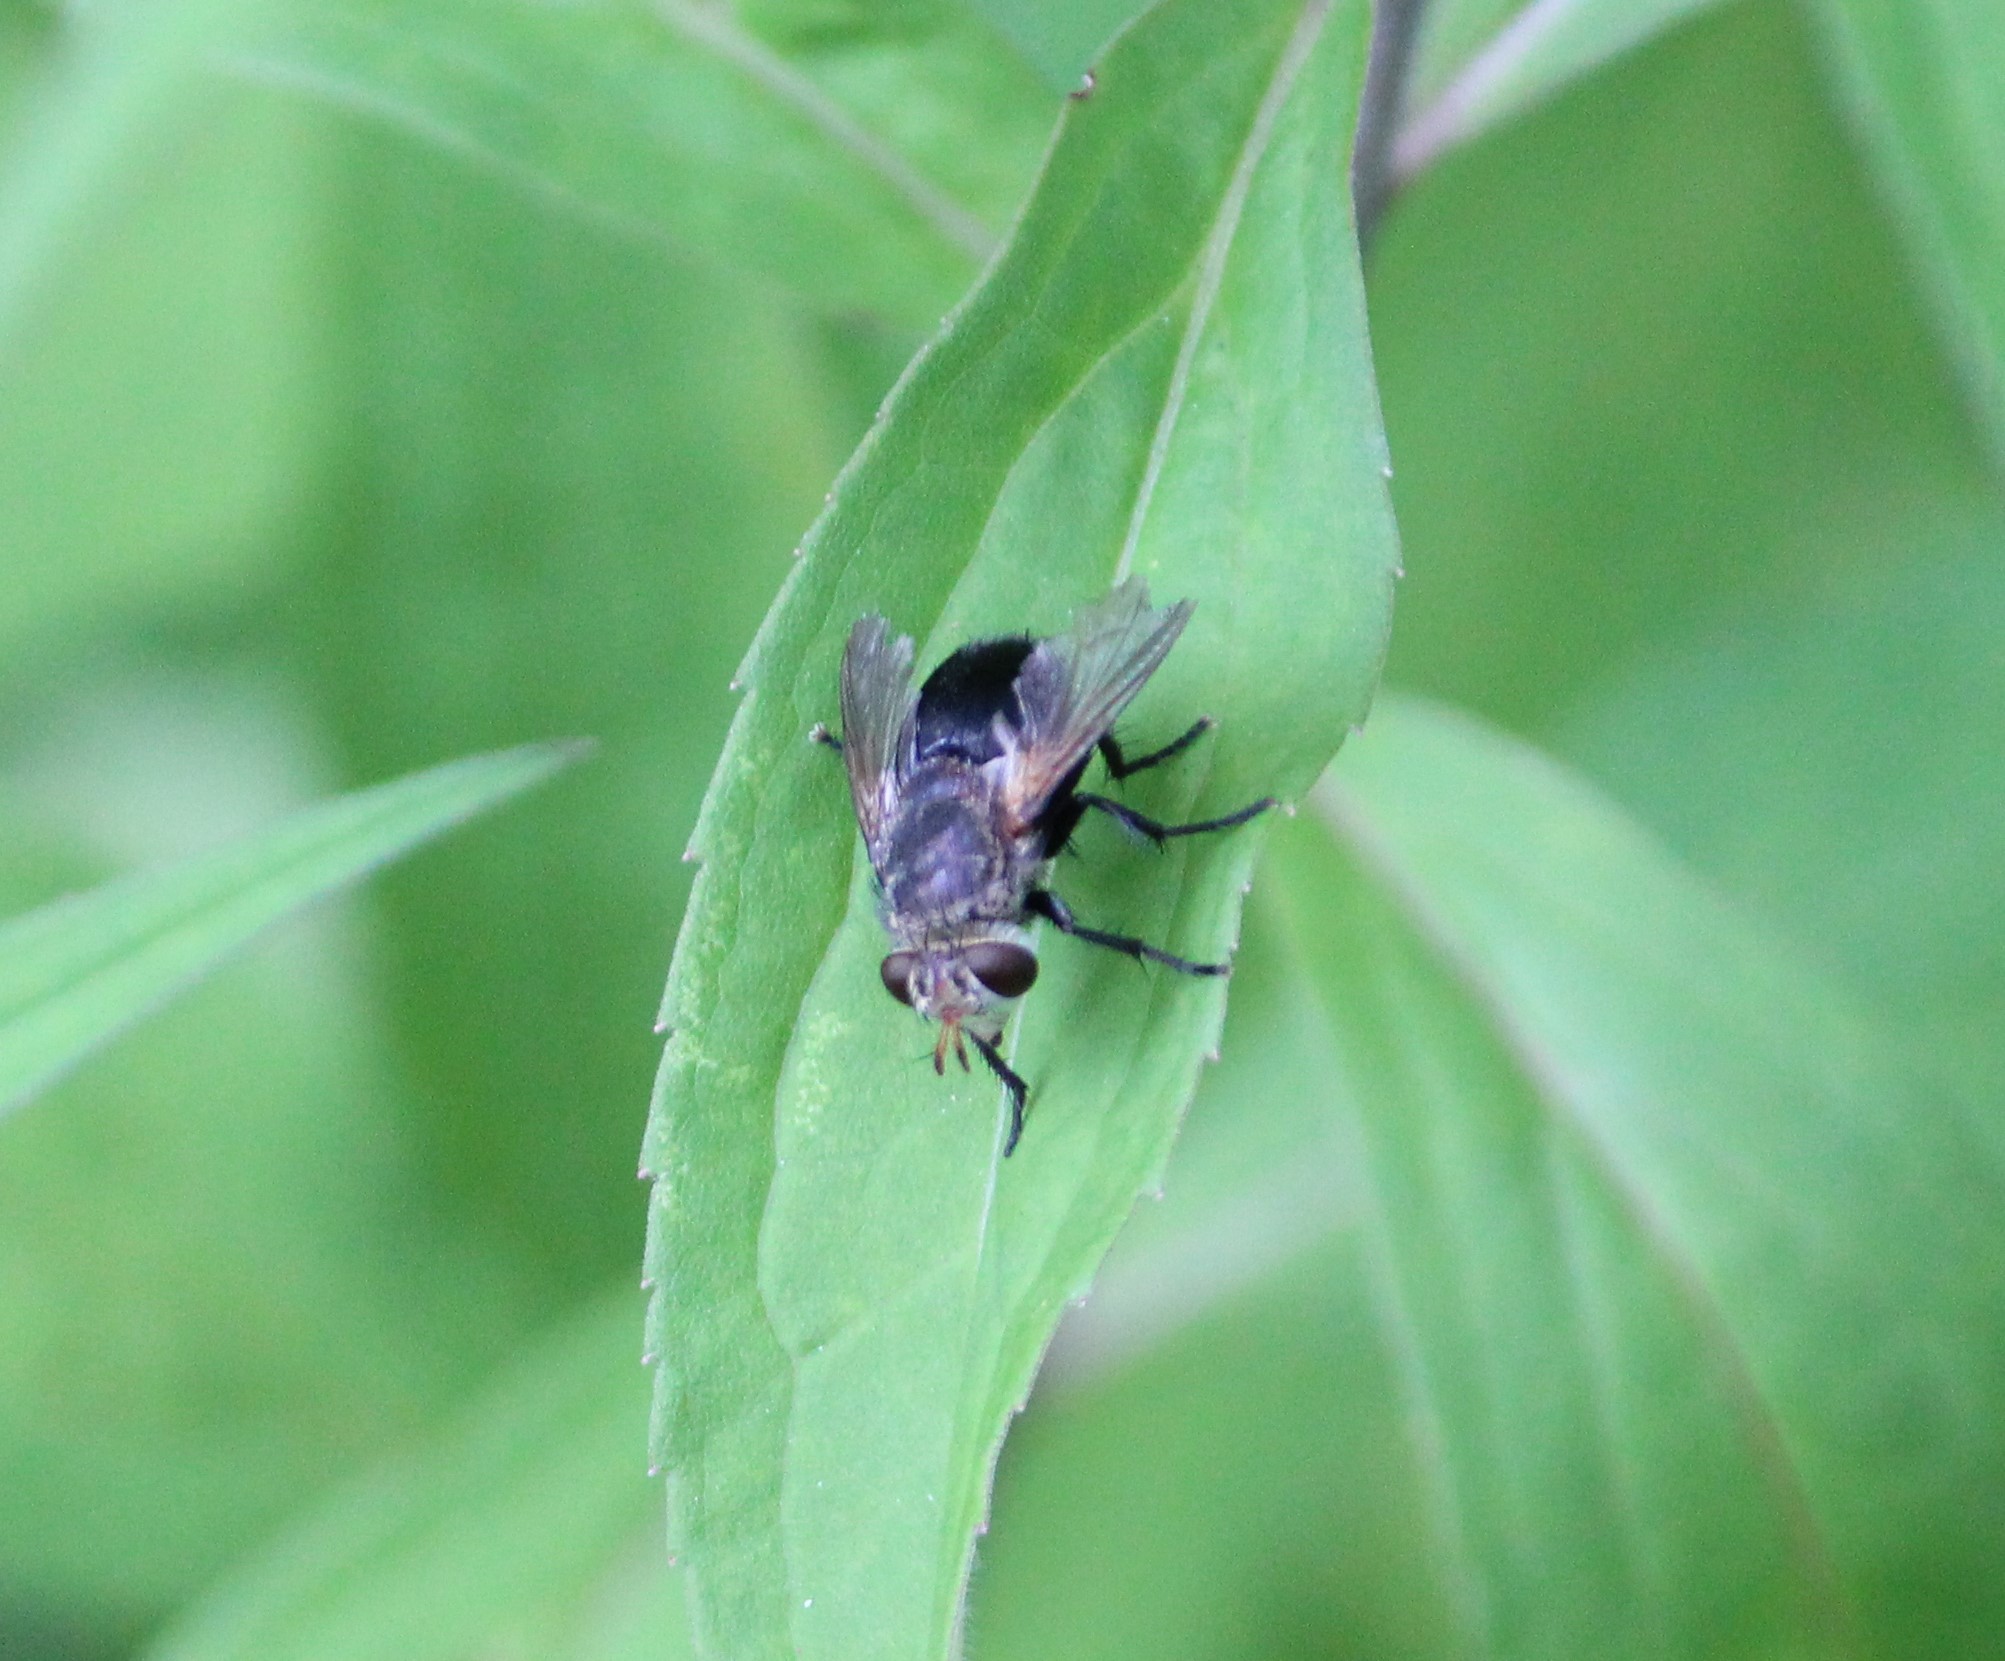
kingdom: Animalia
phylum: Arthropoda
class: Insecta
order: Diptera
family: Tachinidae
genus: Archytas
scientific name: Archytas
